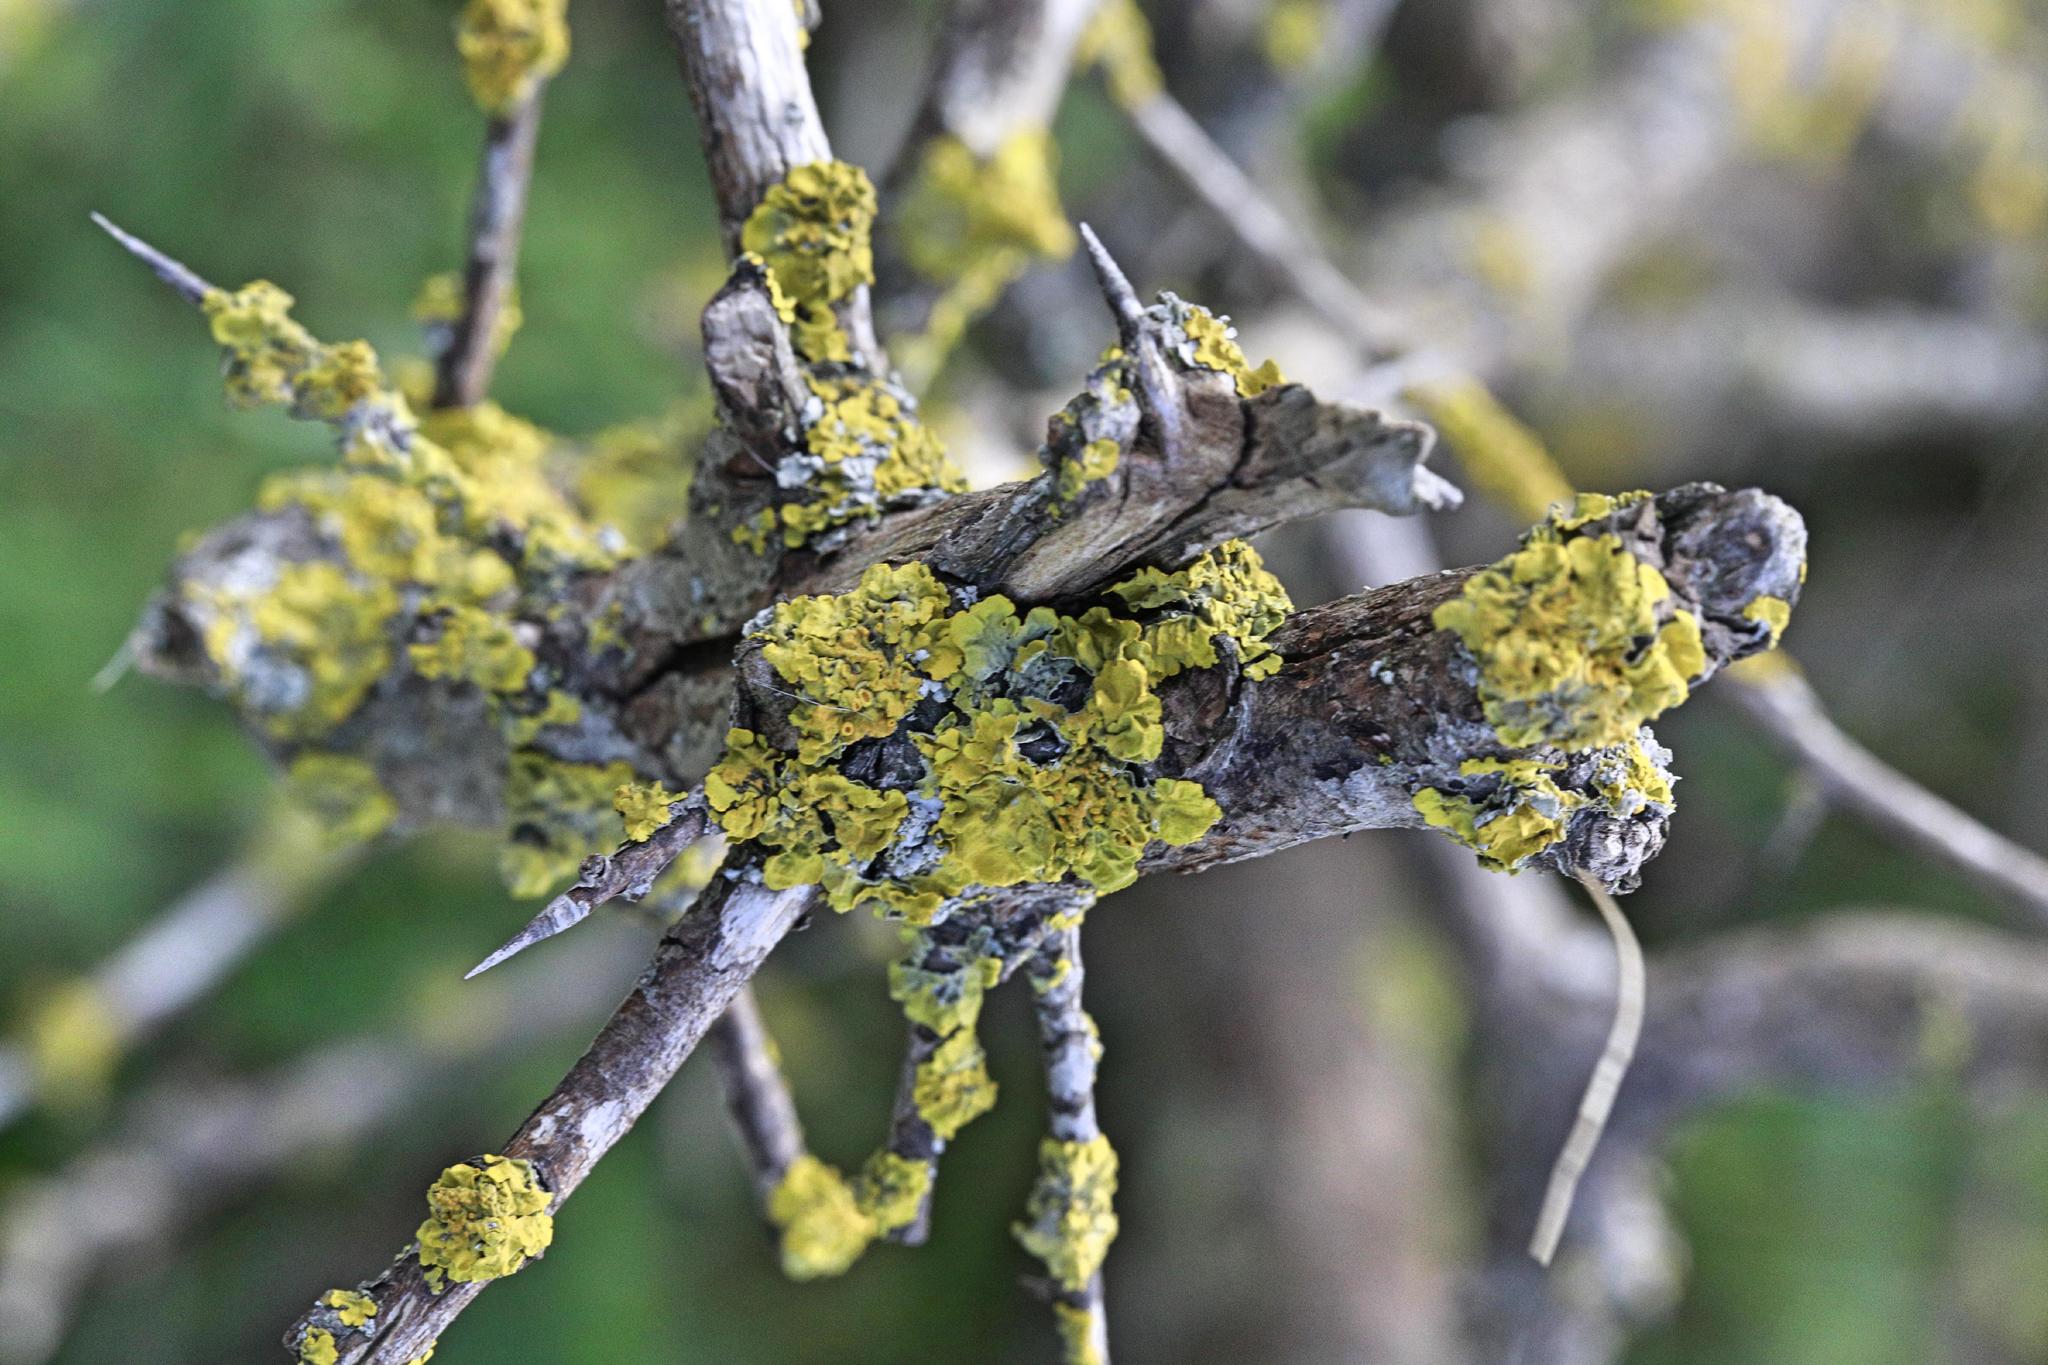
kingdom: Fungi
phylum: Ascomycota
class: Lecanoromycetes
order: Teloschistales
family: Teloschistaceae
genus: Xanthoria
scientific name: Xanthoria parietina
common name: Common orange lichen
